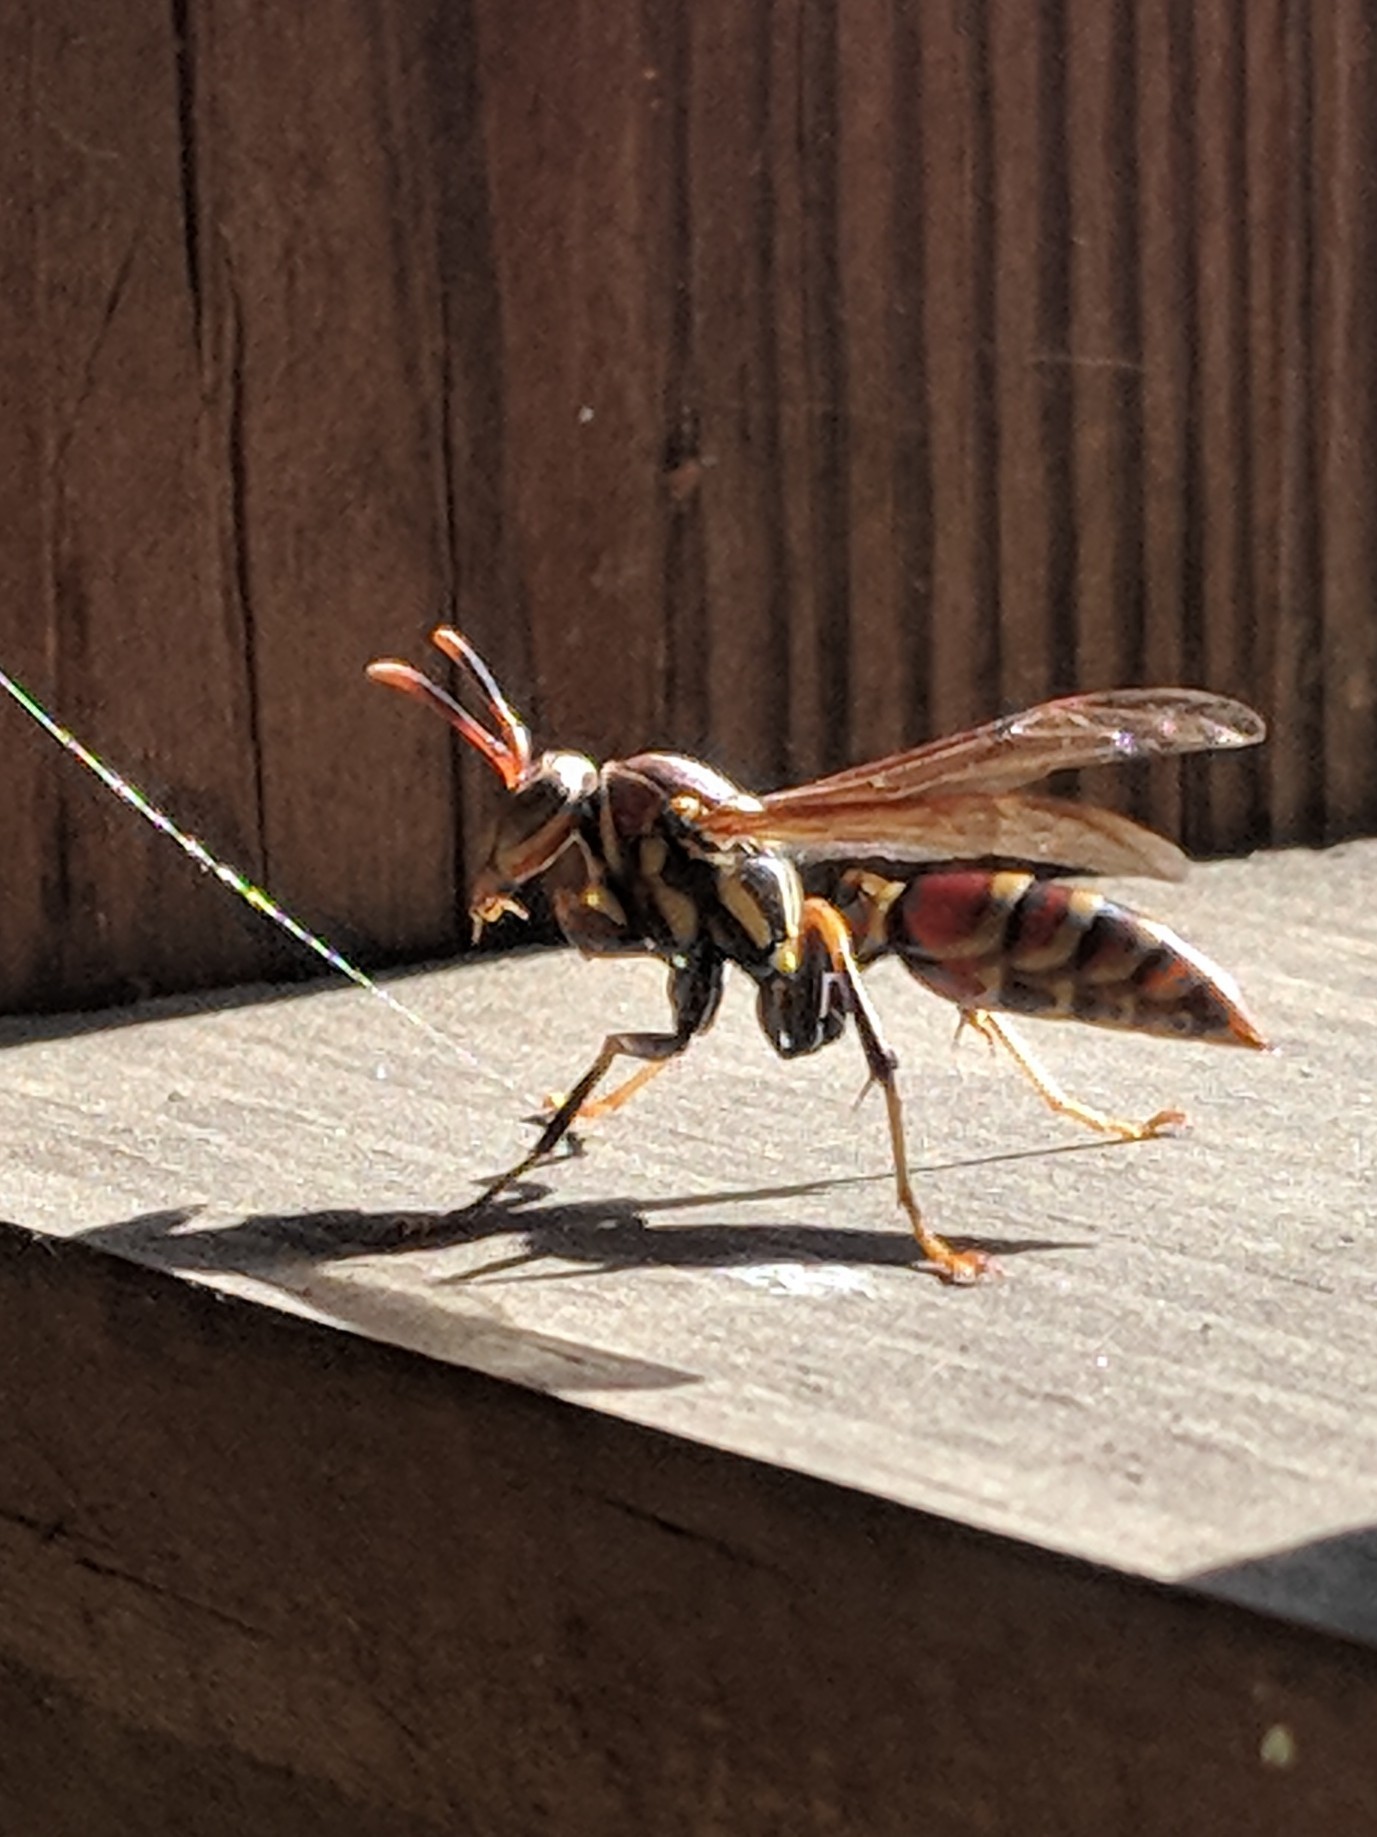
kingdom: Animalia
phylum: Arthropoda
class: Insecta
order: Hymenoptera
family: Eumenidae
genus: Polistes
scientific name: Polistes exclamans
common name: Paper wasp
